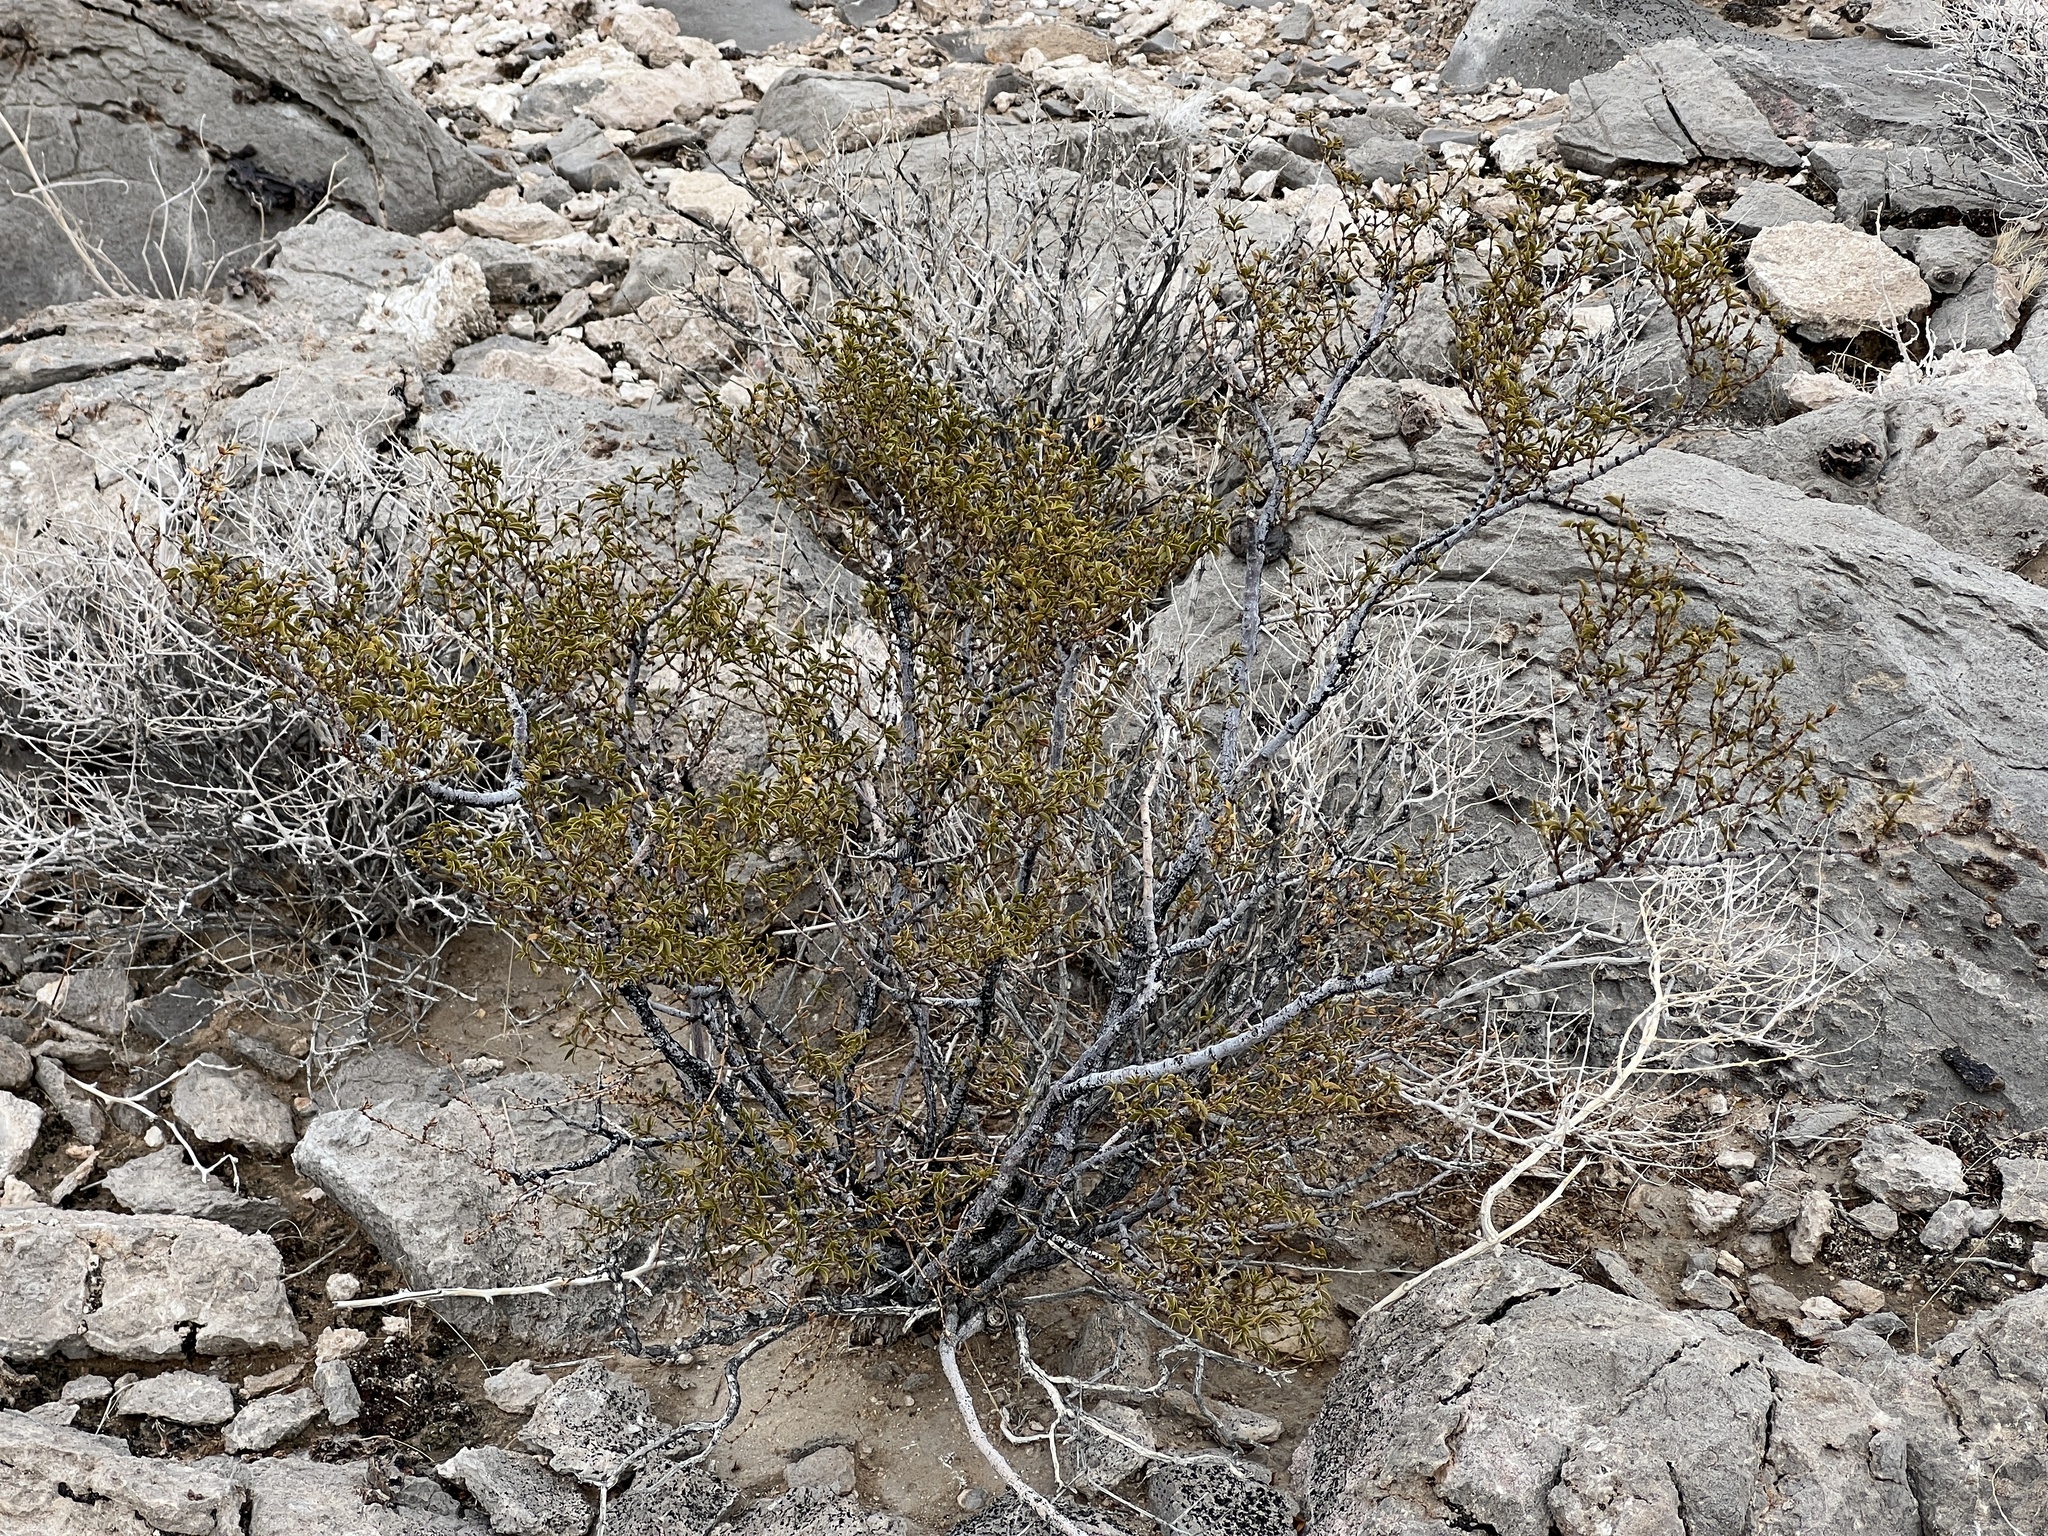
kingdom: Plantae
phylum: Tracheophyta
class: Magnoliopsida
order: Zygophyllales
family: Zygophyllaceae
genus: Larrea
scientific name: Larrea tridentata
